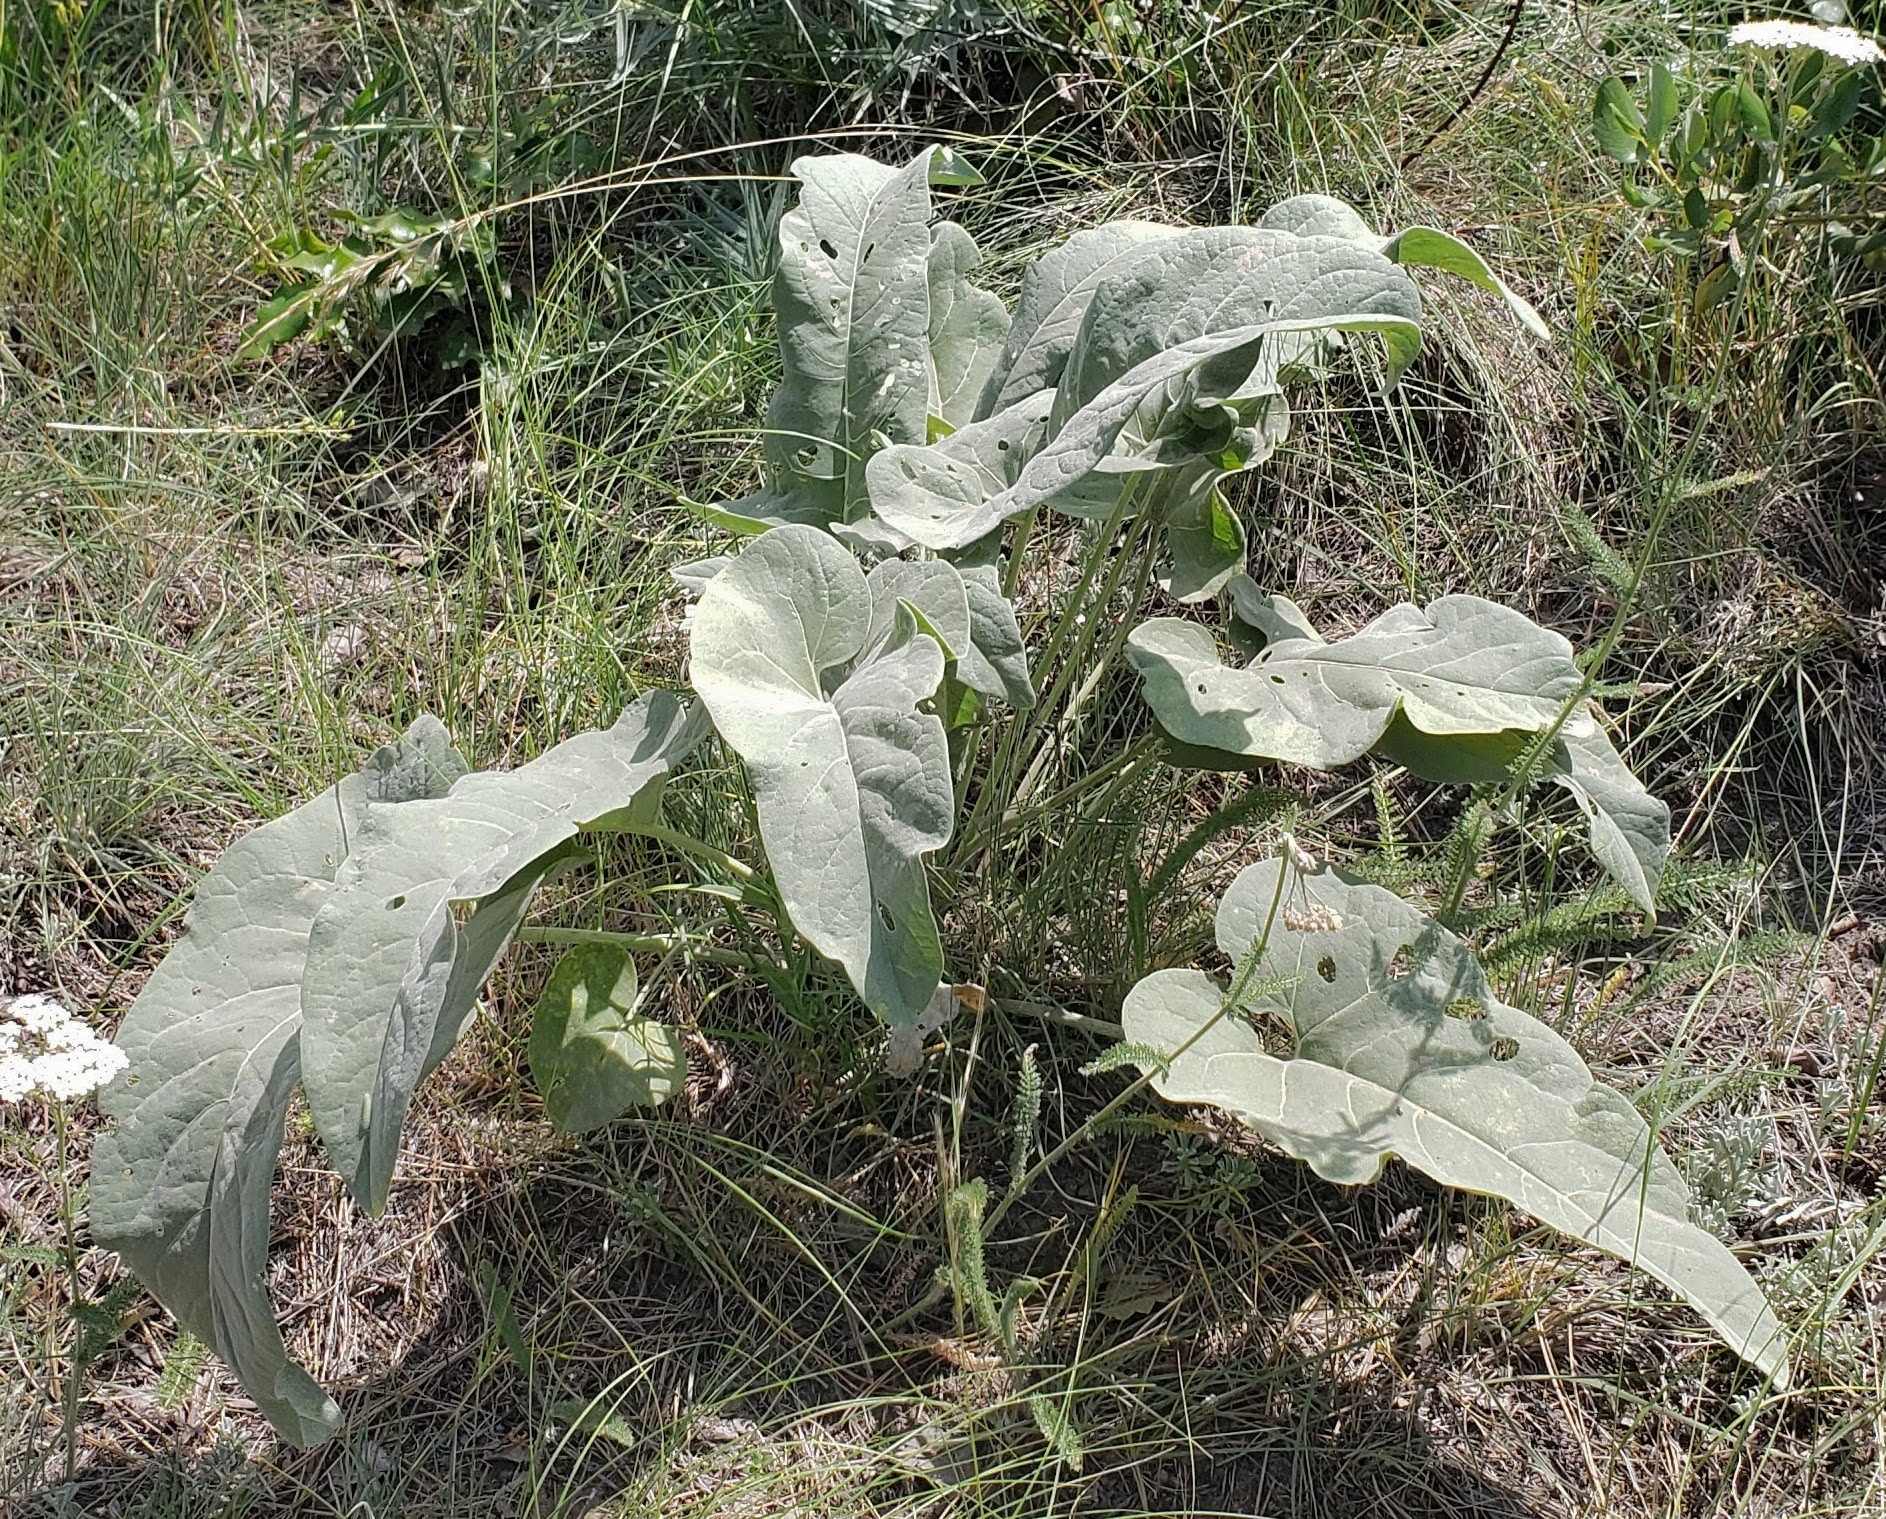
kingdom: Plantae
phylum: Tracheophyta
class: Magnoliopsida
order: Asterales
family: Asteraceae
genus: Wyethia
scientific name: Wyethia sagittata
